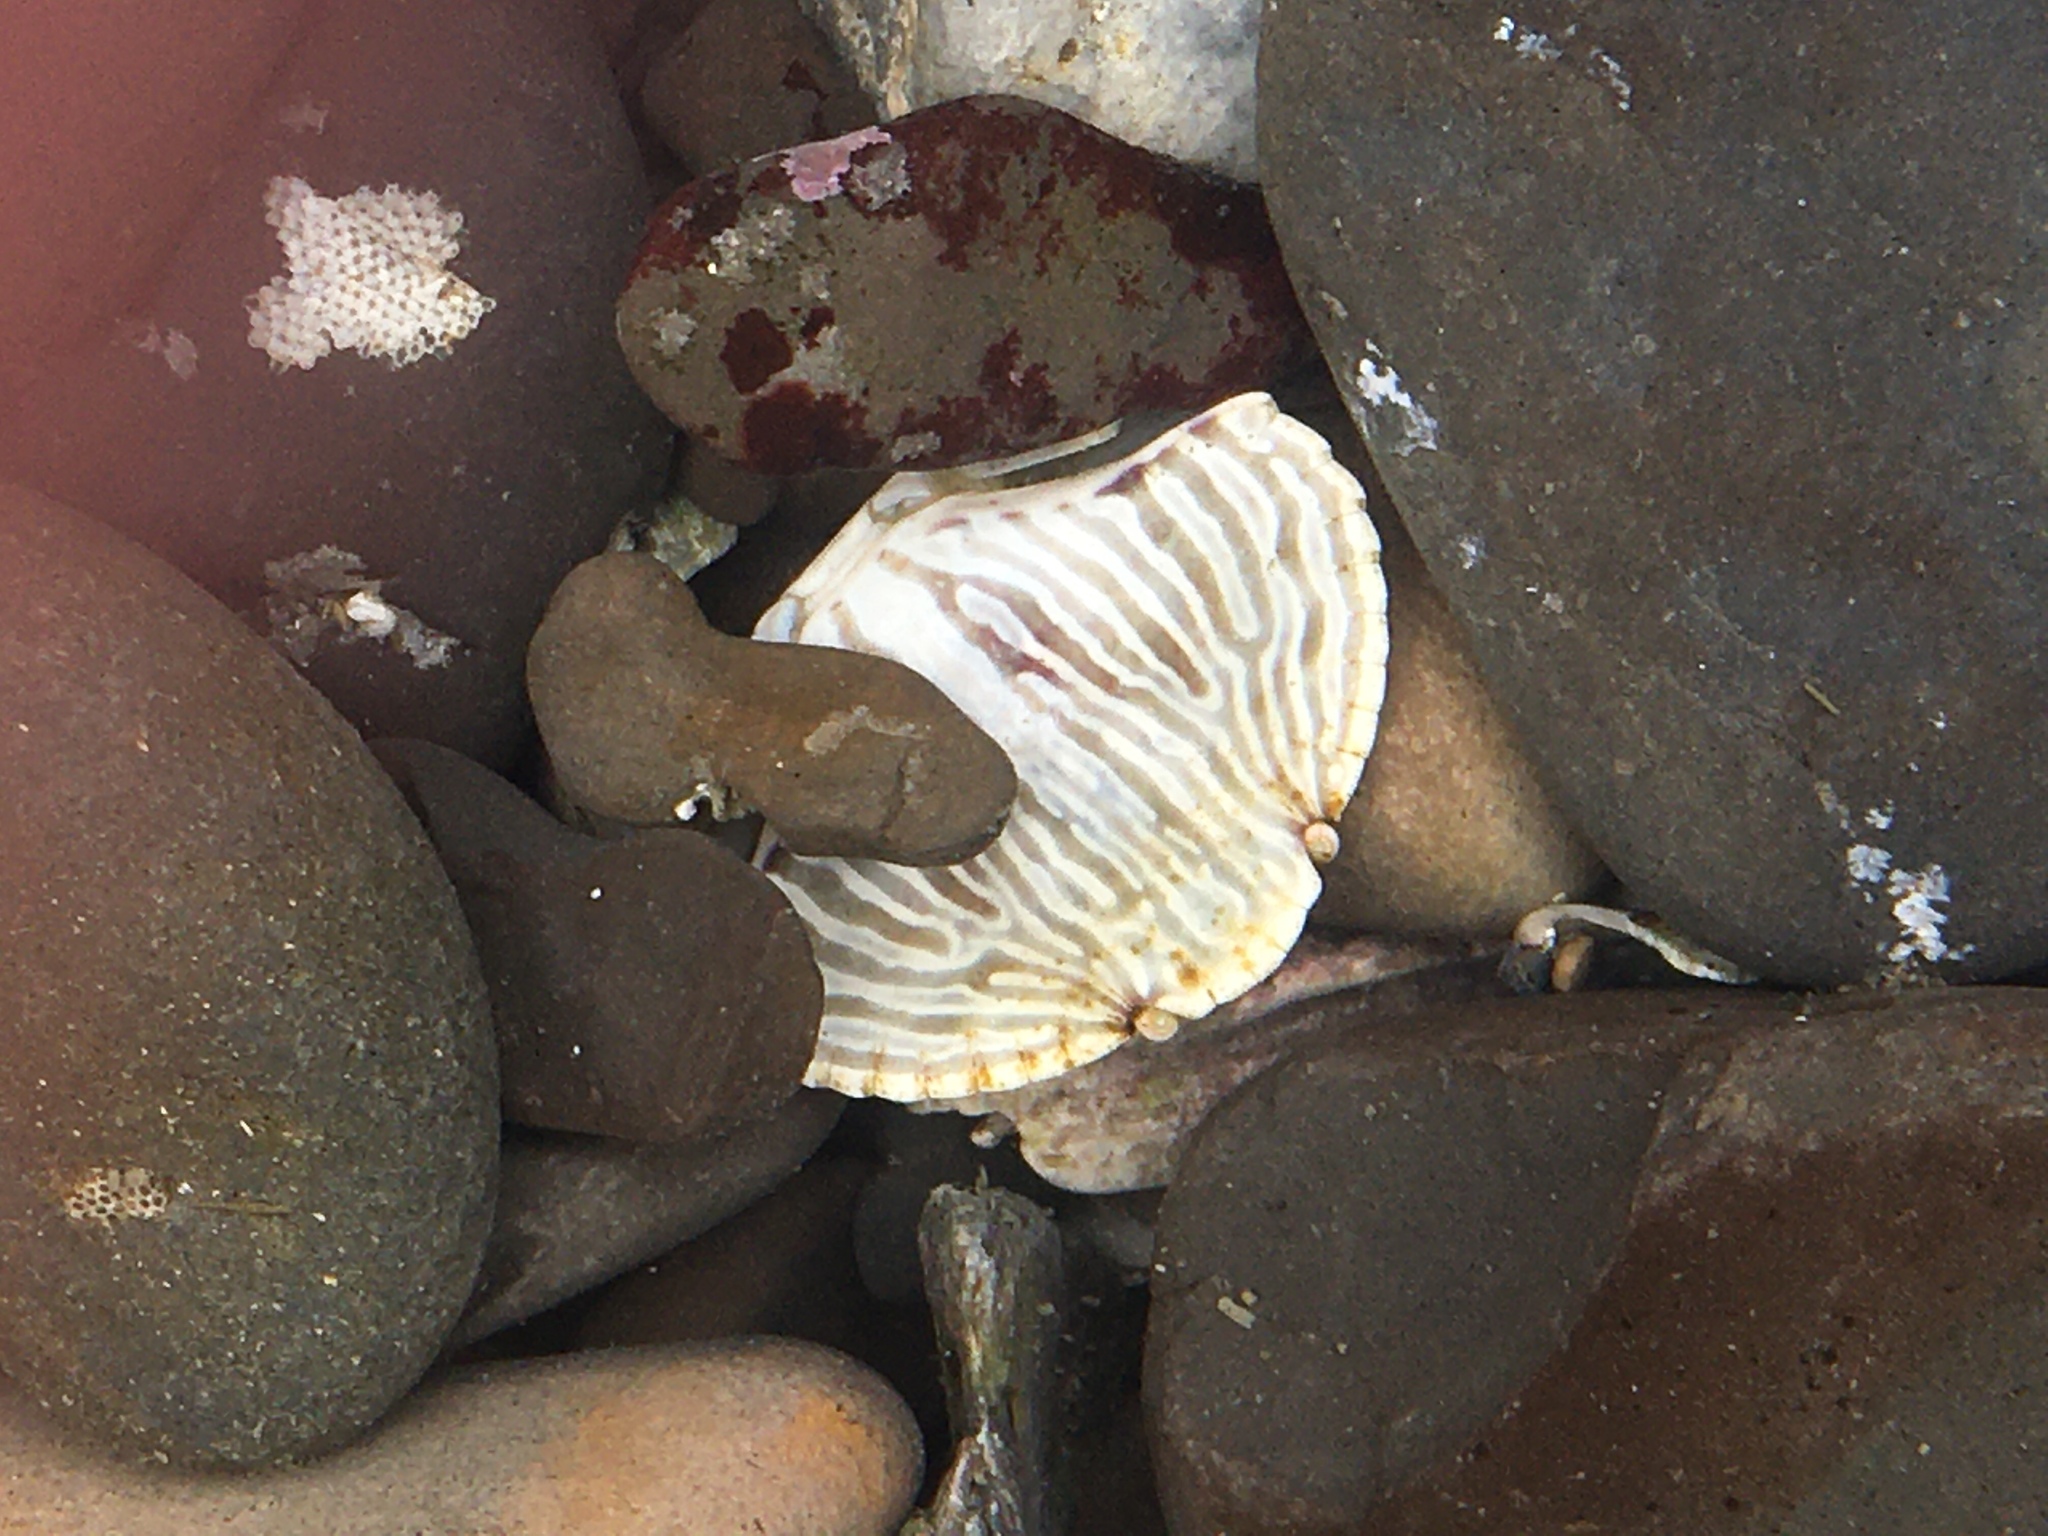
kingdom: Animalia
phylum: Arthropoda
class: Malacostraca
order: Decapoda
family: Cancridae
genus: Cancer
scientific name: Cancer productus
